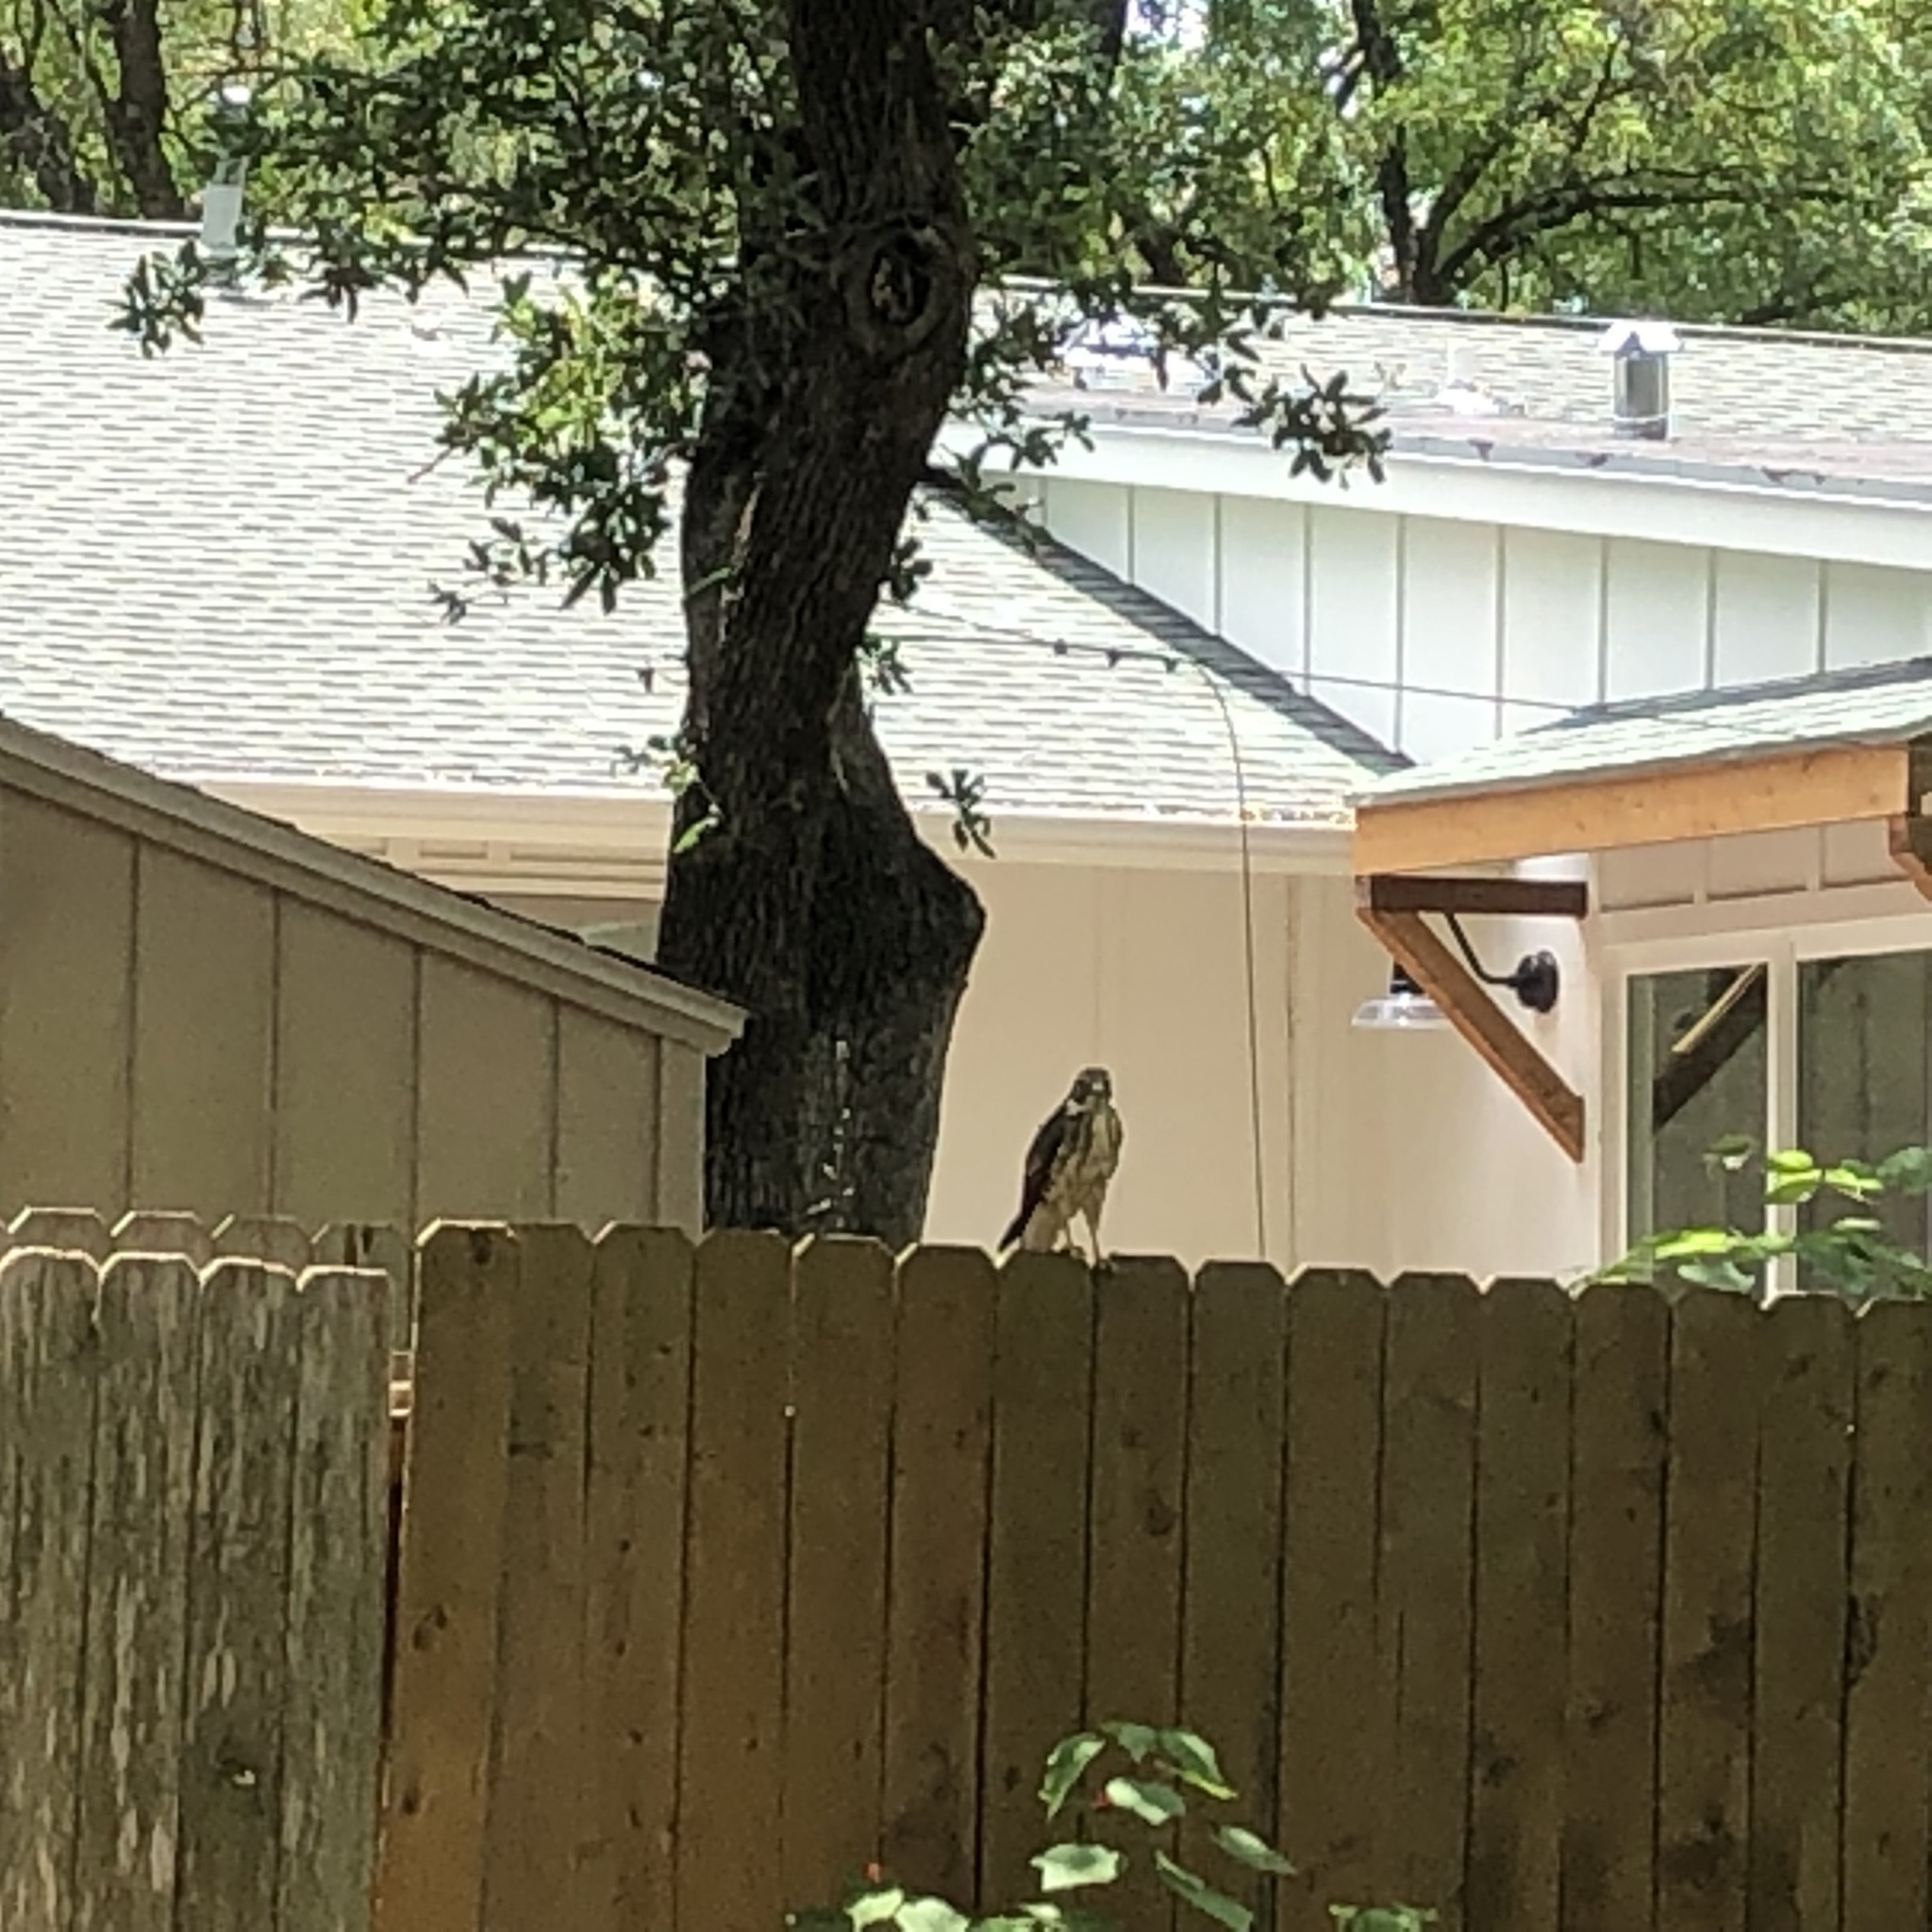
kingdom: Animalia
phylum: Chordata
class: Aves
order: Accipitriformes
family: Accipitridae
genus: Buteo
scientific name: Buteo platypterus
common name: Broad-winged hawk
